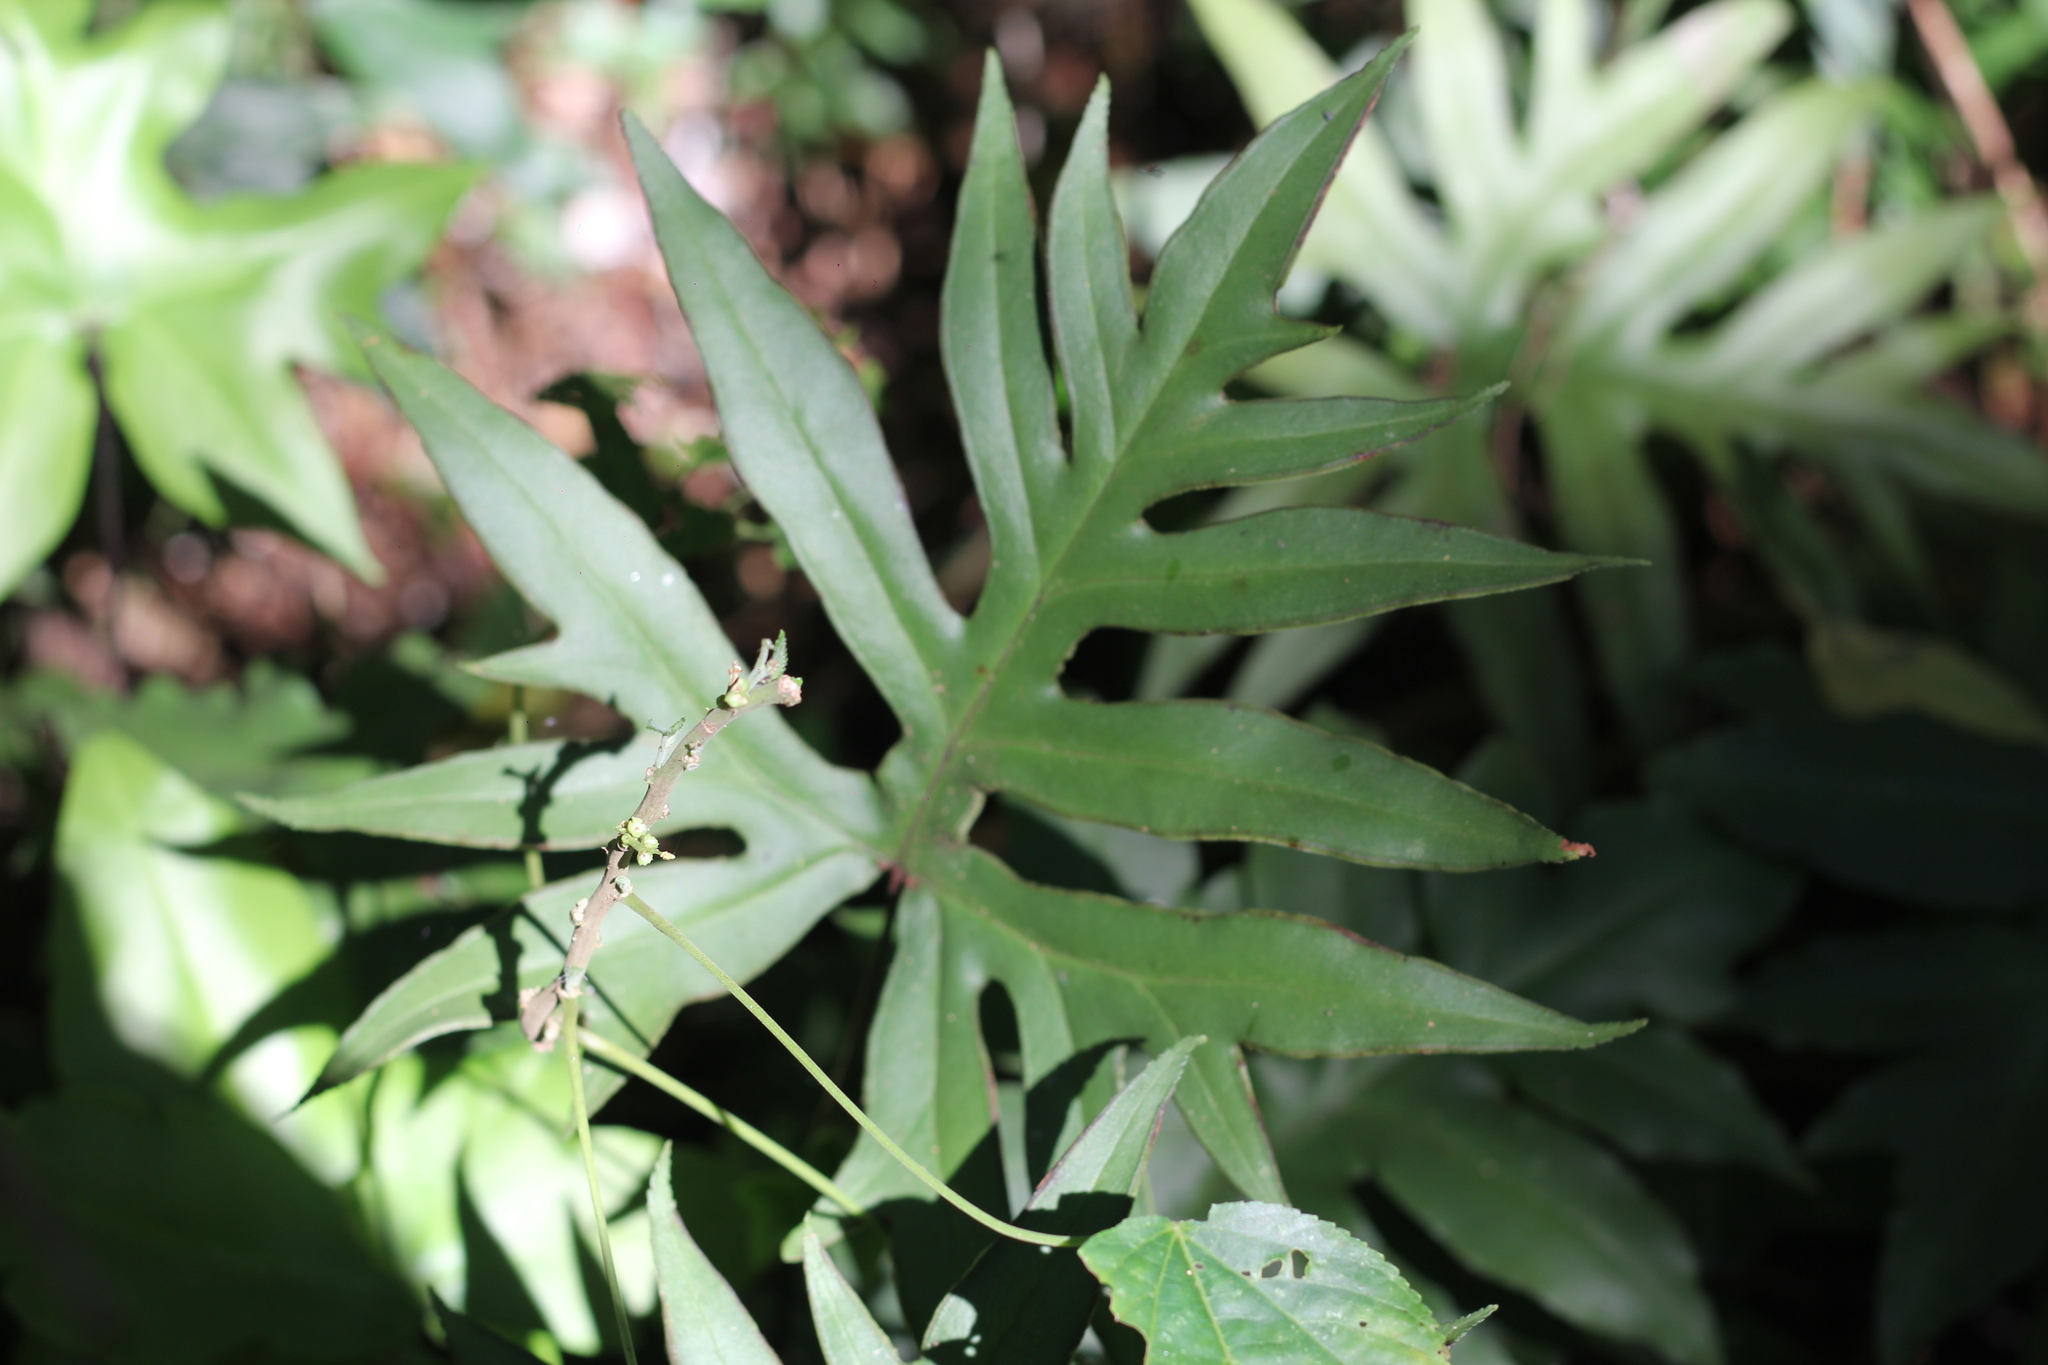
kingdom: Plantae
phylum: Tracheophyta
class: Polypodiopsida
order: Polypodiales
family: Pteridaceae
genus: Doryopteris
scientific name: Doryopteris concolor
